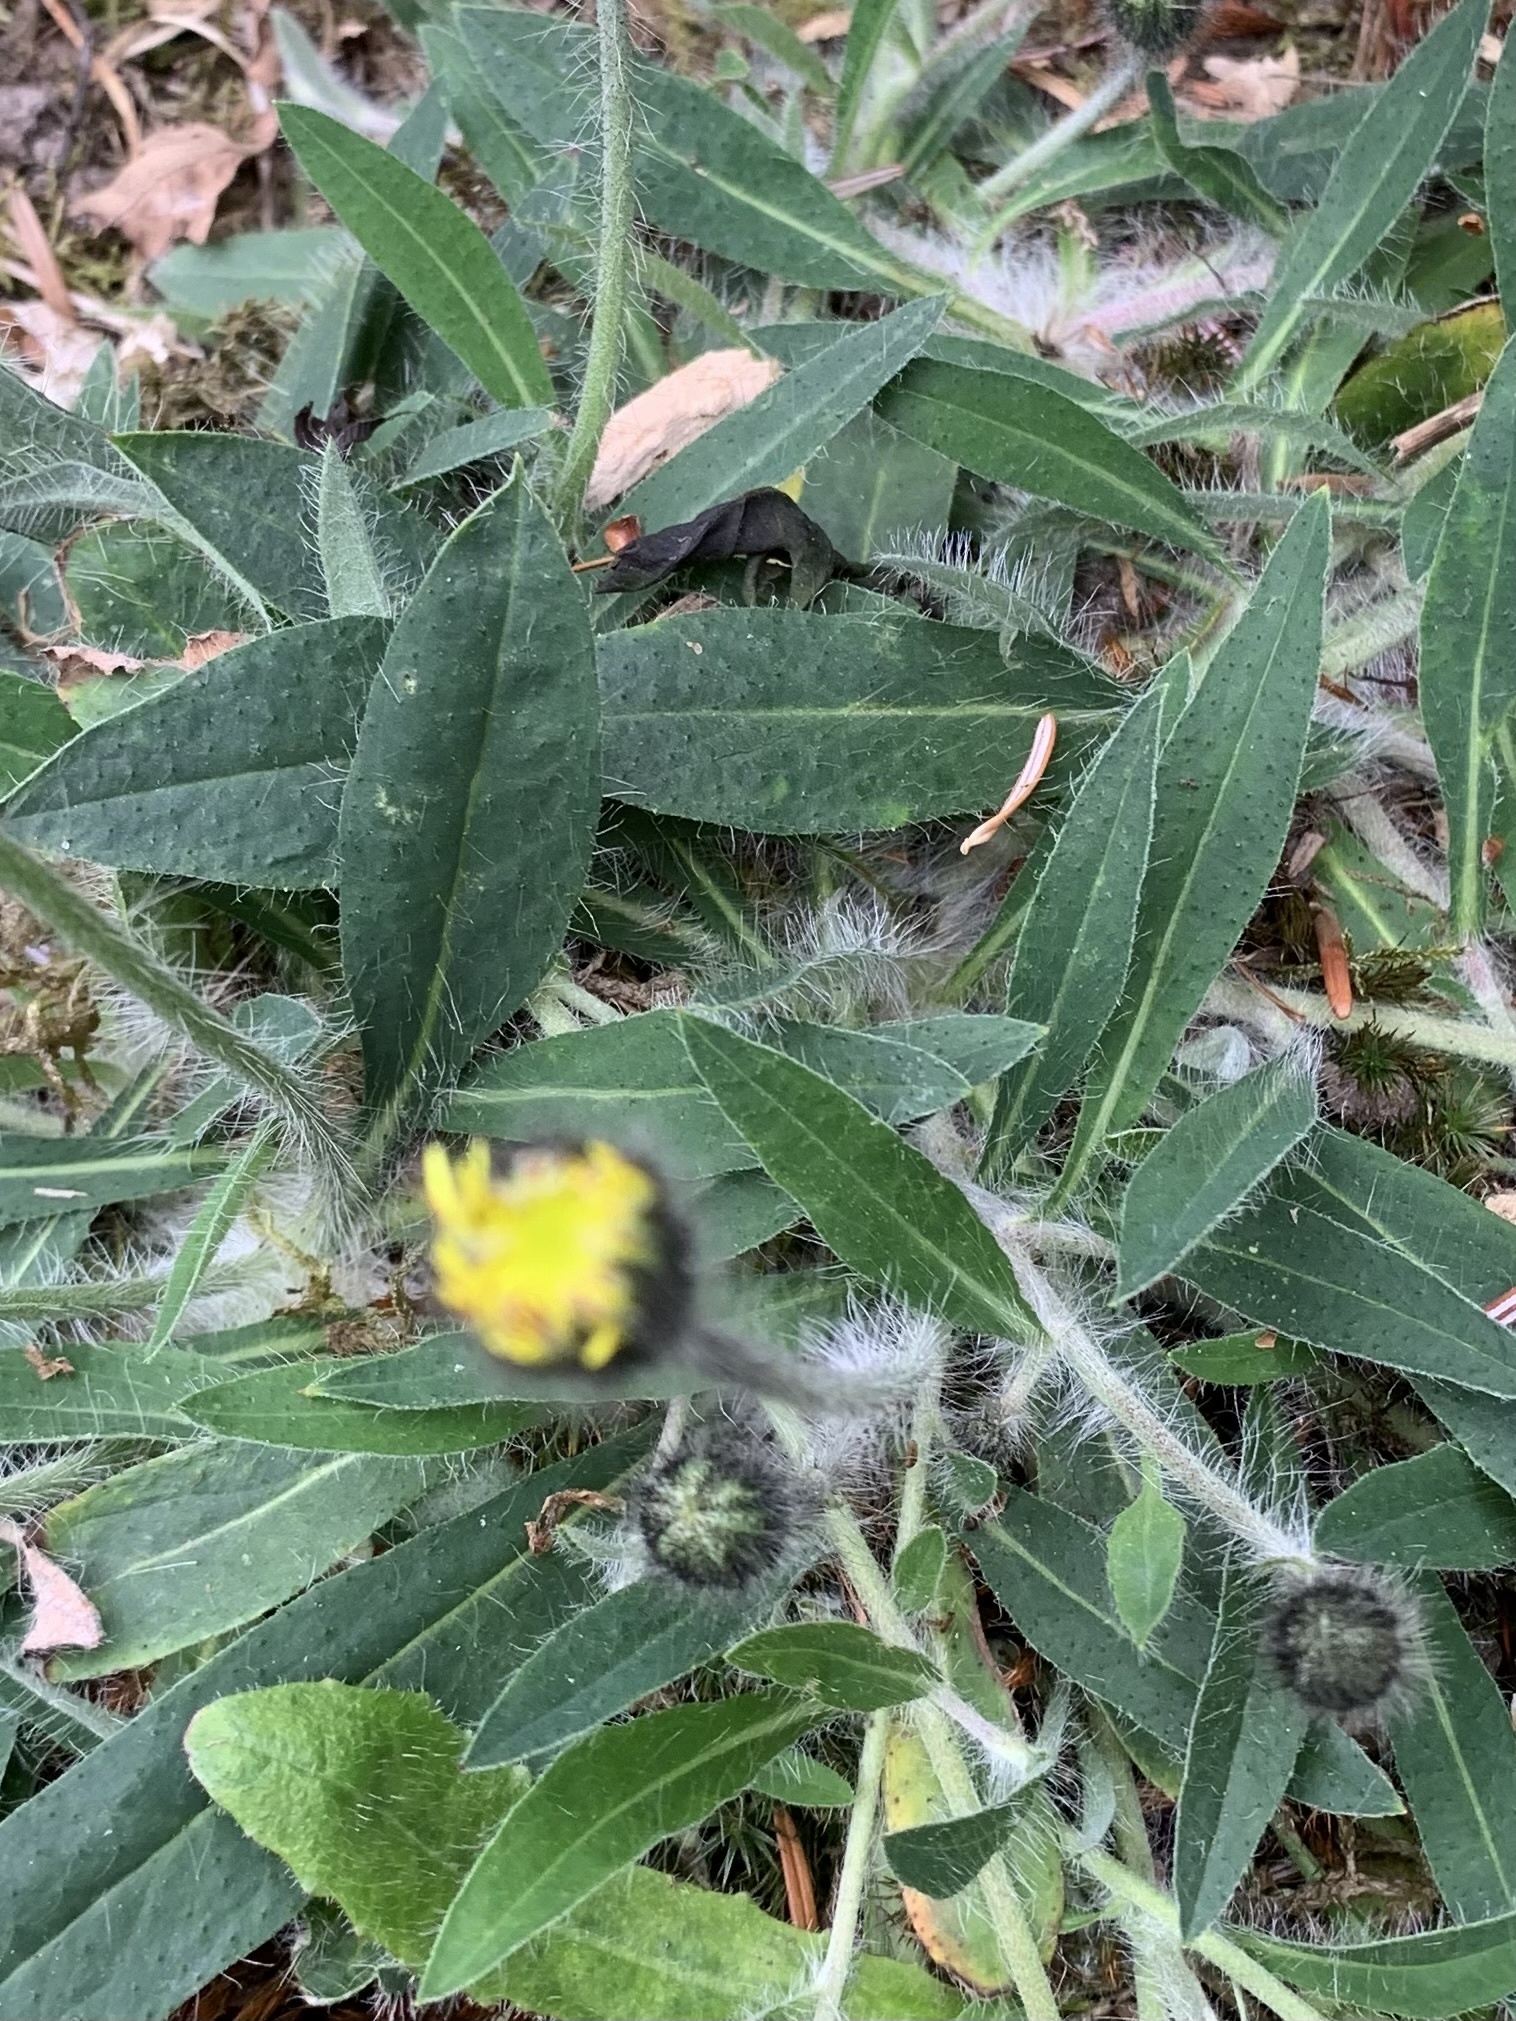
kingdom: Plantae
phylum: Tracheophyta
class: Magnoliopsida
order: Asterales
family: Asteraceae
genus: Pilosella
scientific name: Pilosella officinarum
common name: Mouse-ear hawkweed
